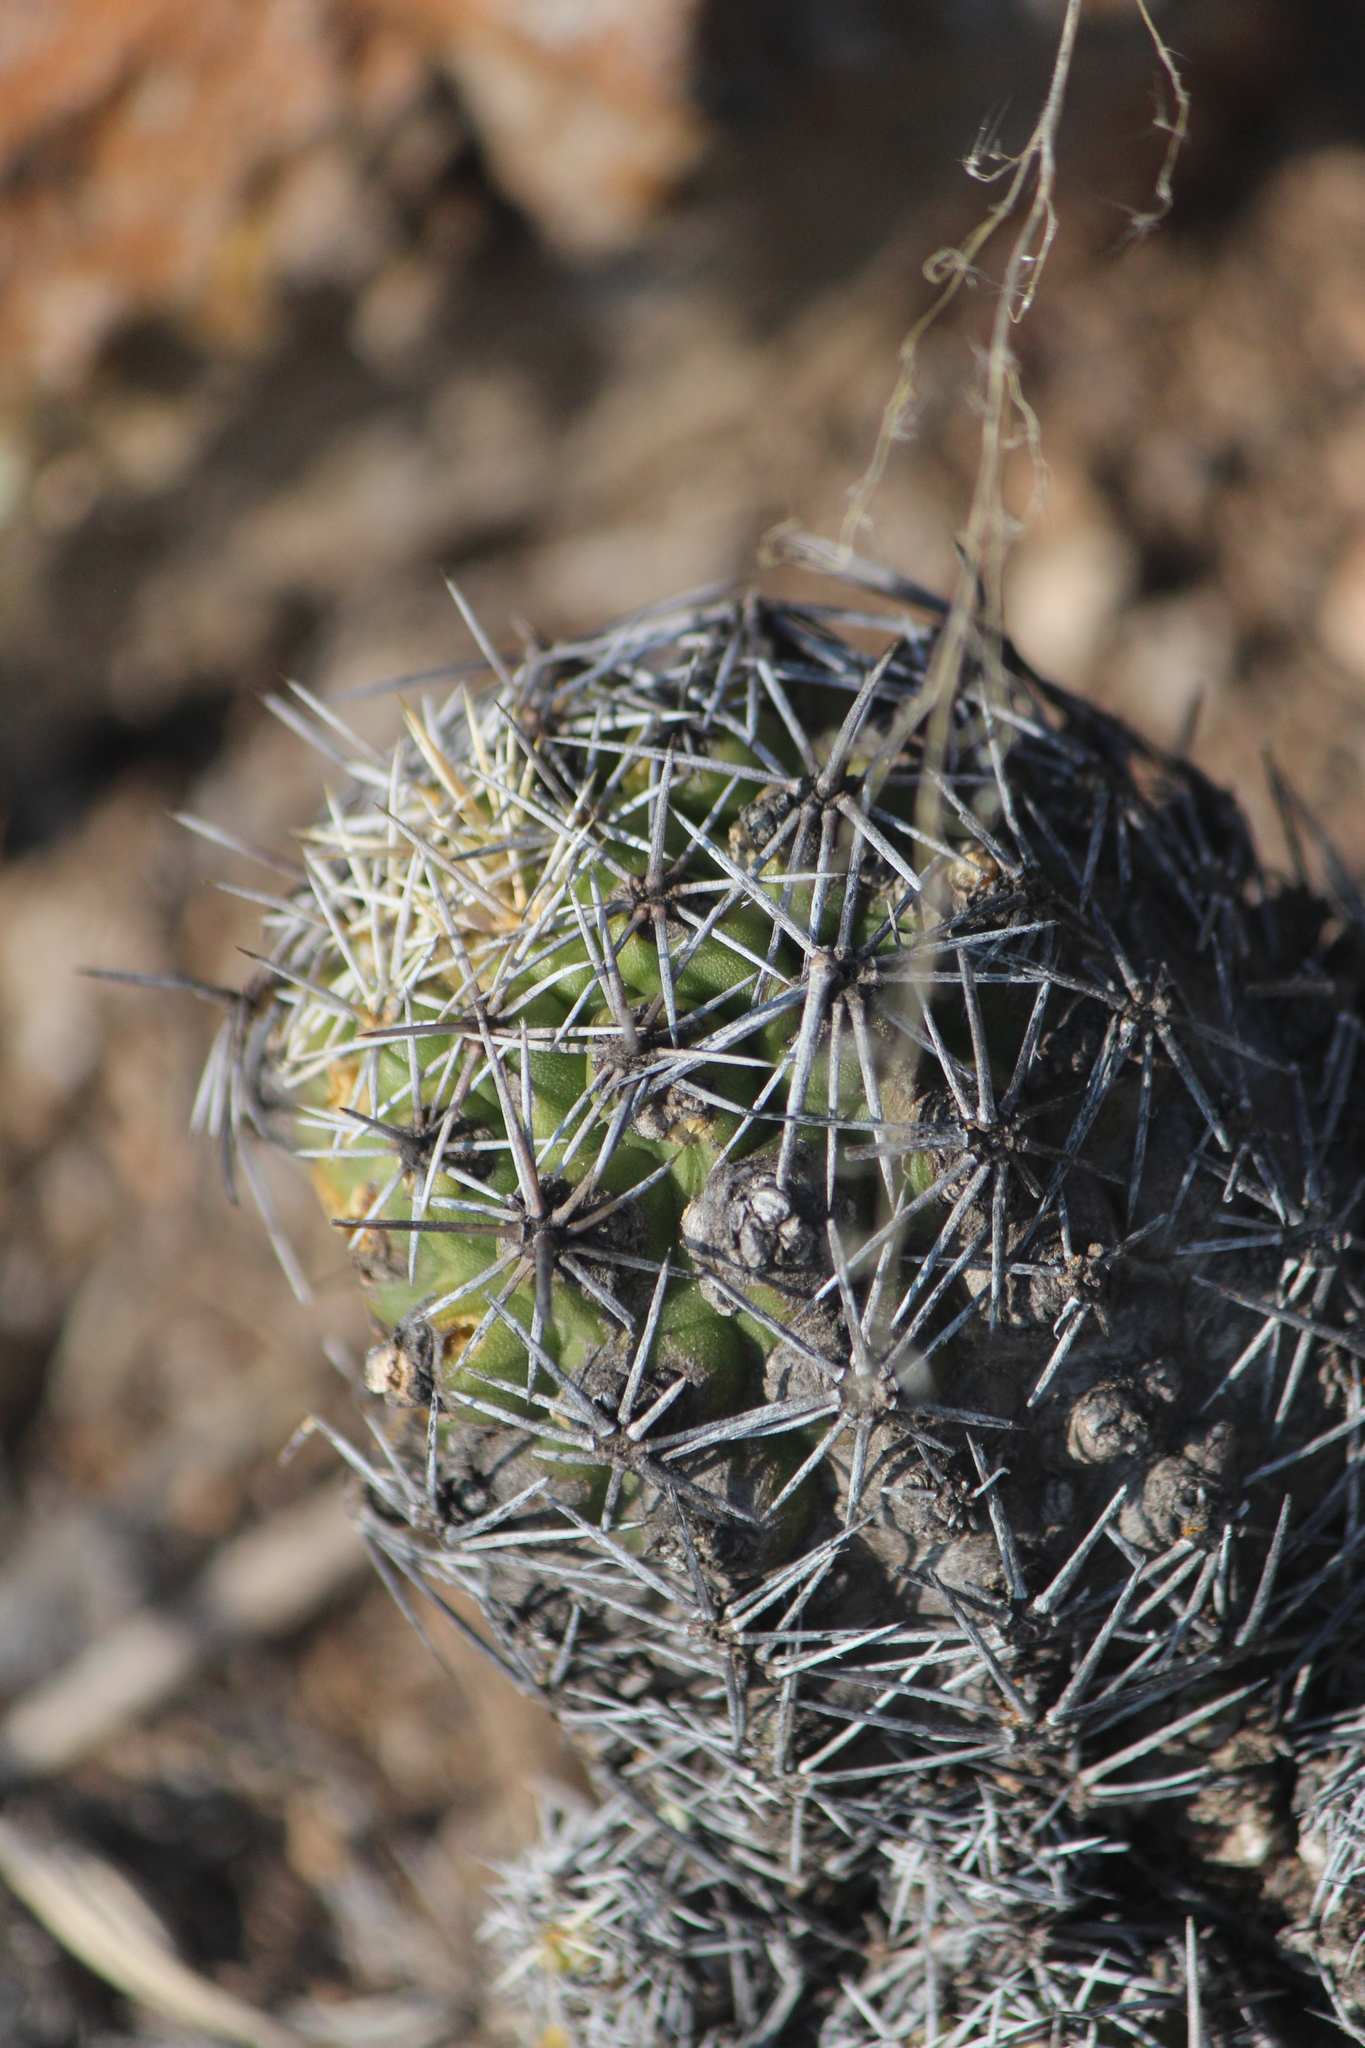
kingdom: Plantae
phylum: Tracheophyta
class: Magnoliopsida
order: Caryophyllales
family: Cactaceae
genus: Thelocactus
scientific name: Thelocactus leucacanthus
